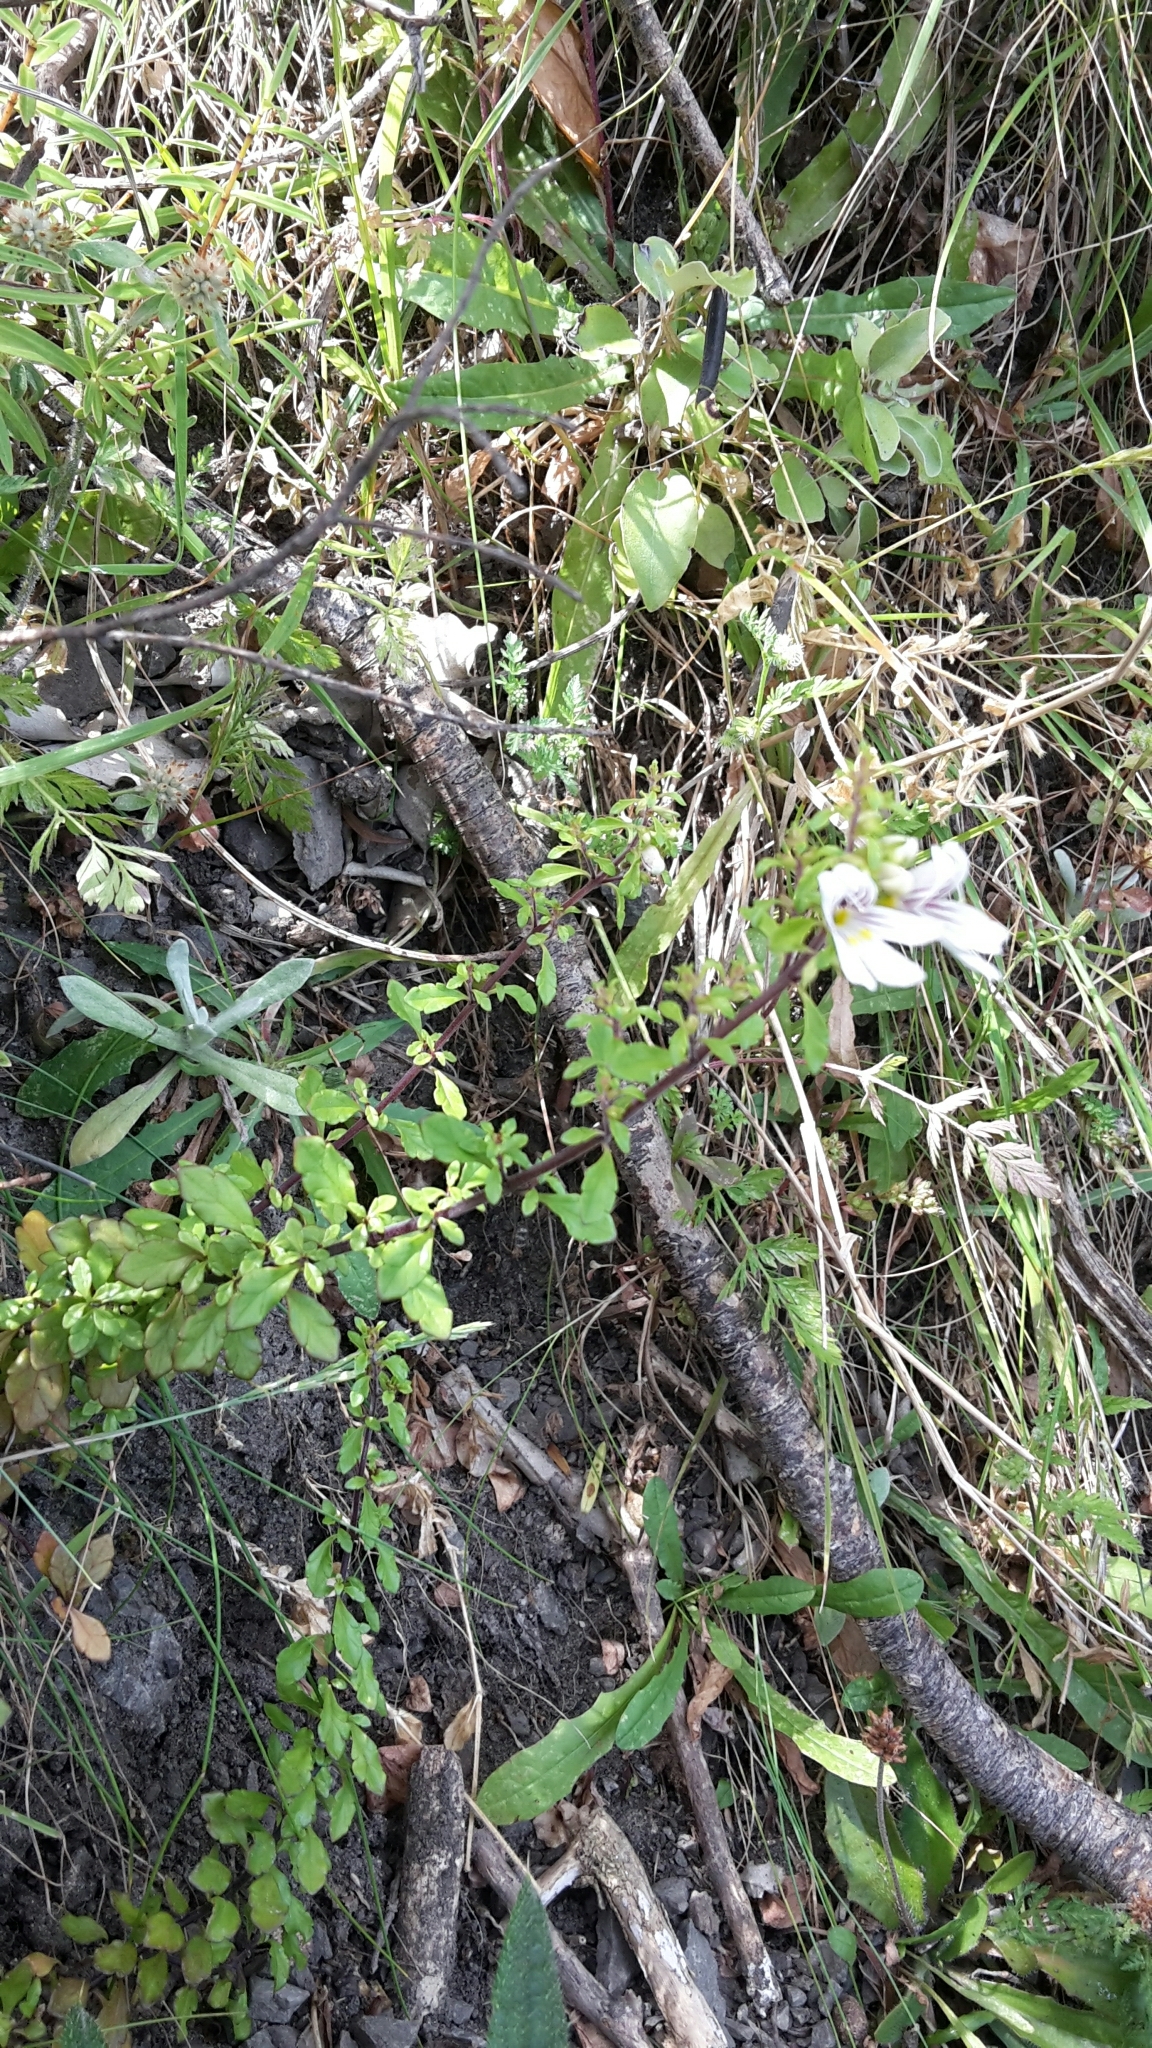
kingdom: Plantae
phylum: Tracheophyta
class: Magnoliopsida
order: Lamiales
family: Orobanchaceae
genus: Euphrasia
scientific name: Euphrasia cuneata
